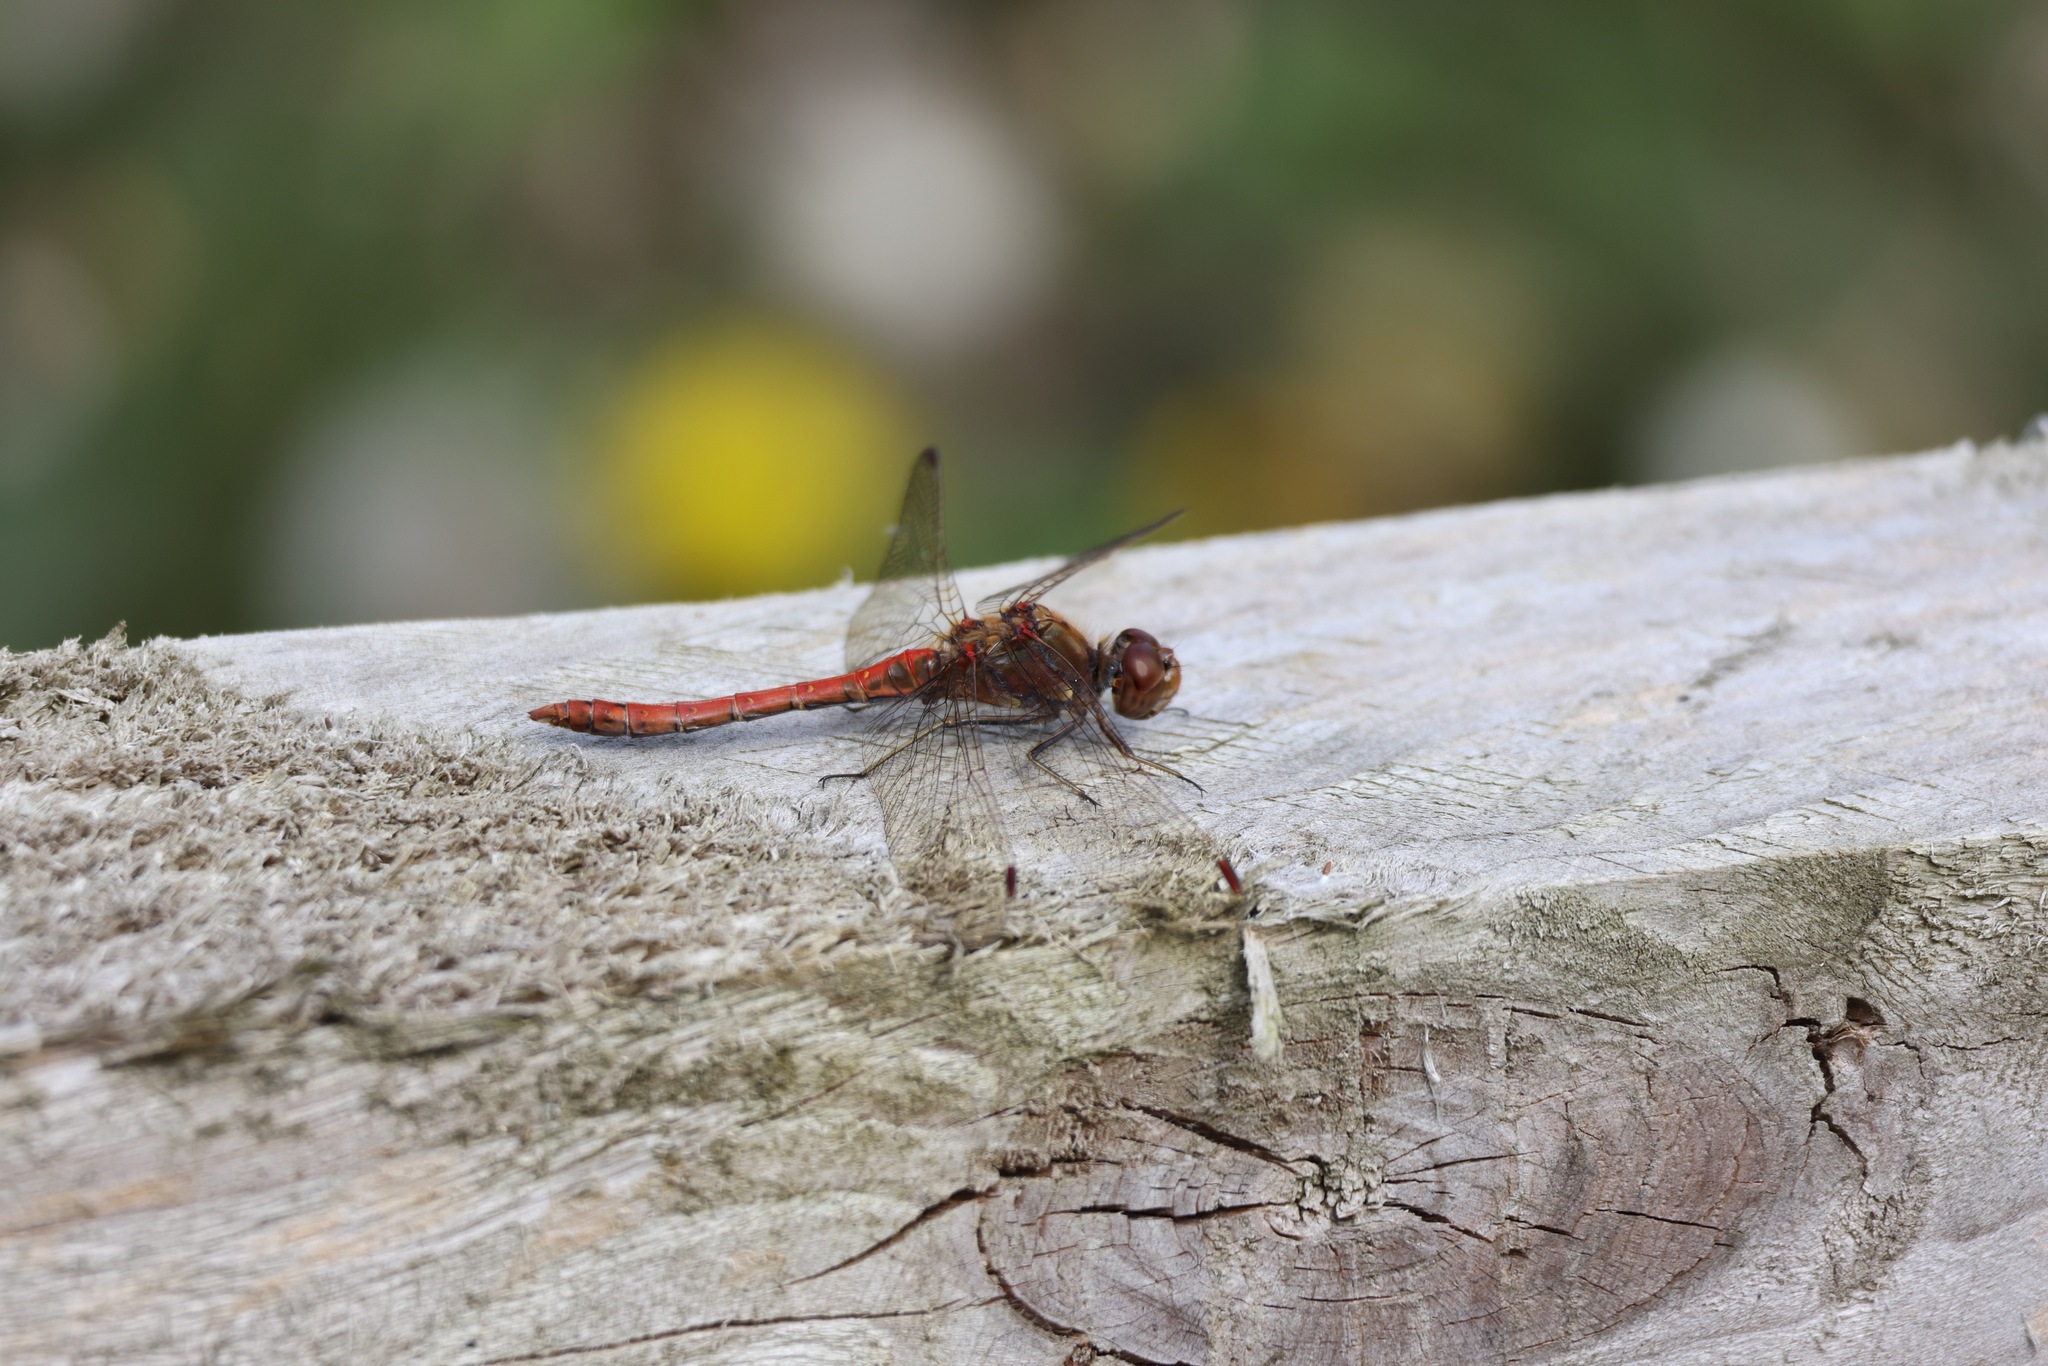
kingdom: Animalia
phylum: Arthropoda
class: Insecta
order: Odonata
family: Libellulidae
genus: Sympetrum
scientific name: Sympetrum striolatum
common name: Common darter
